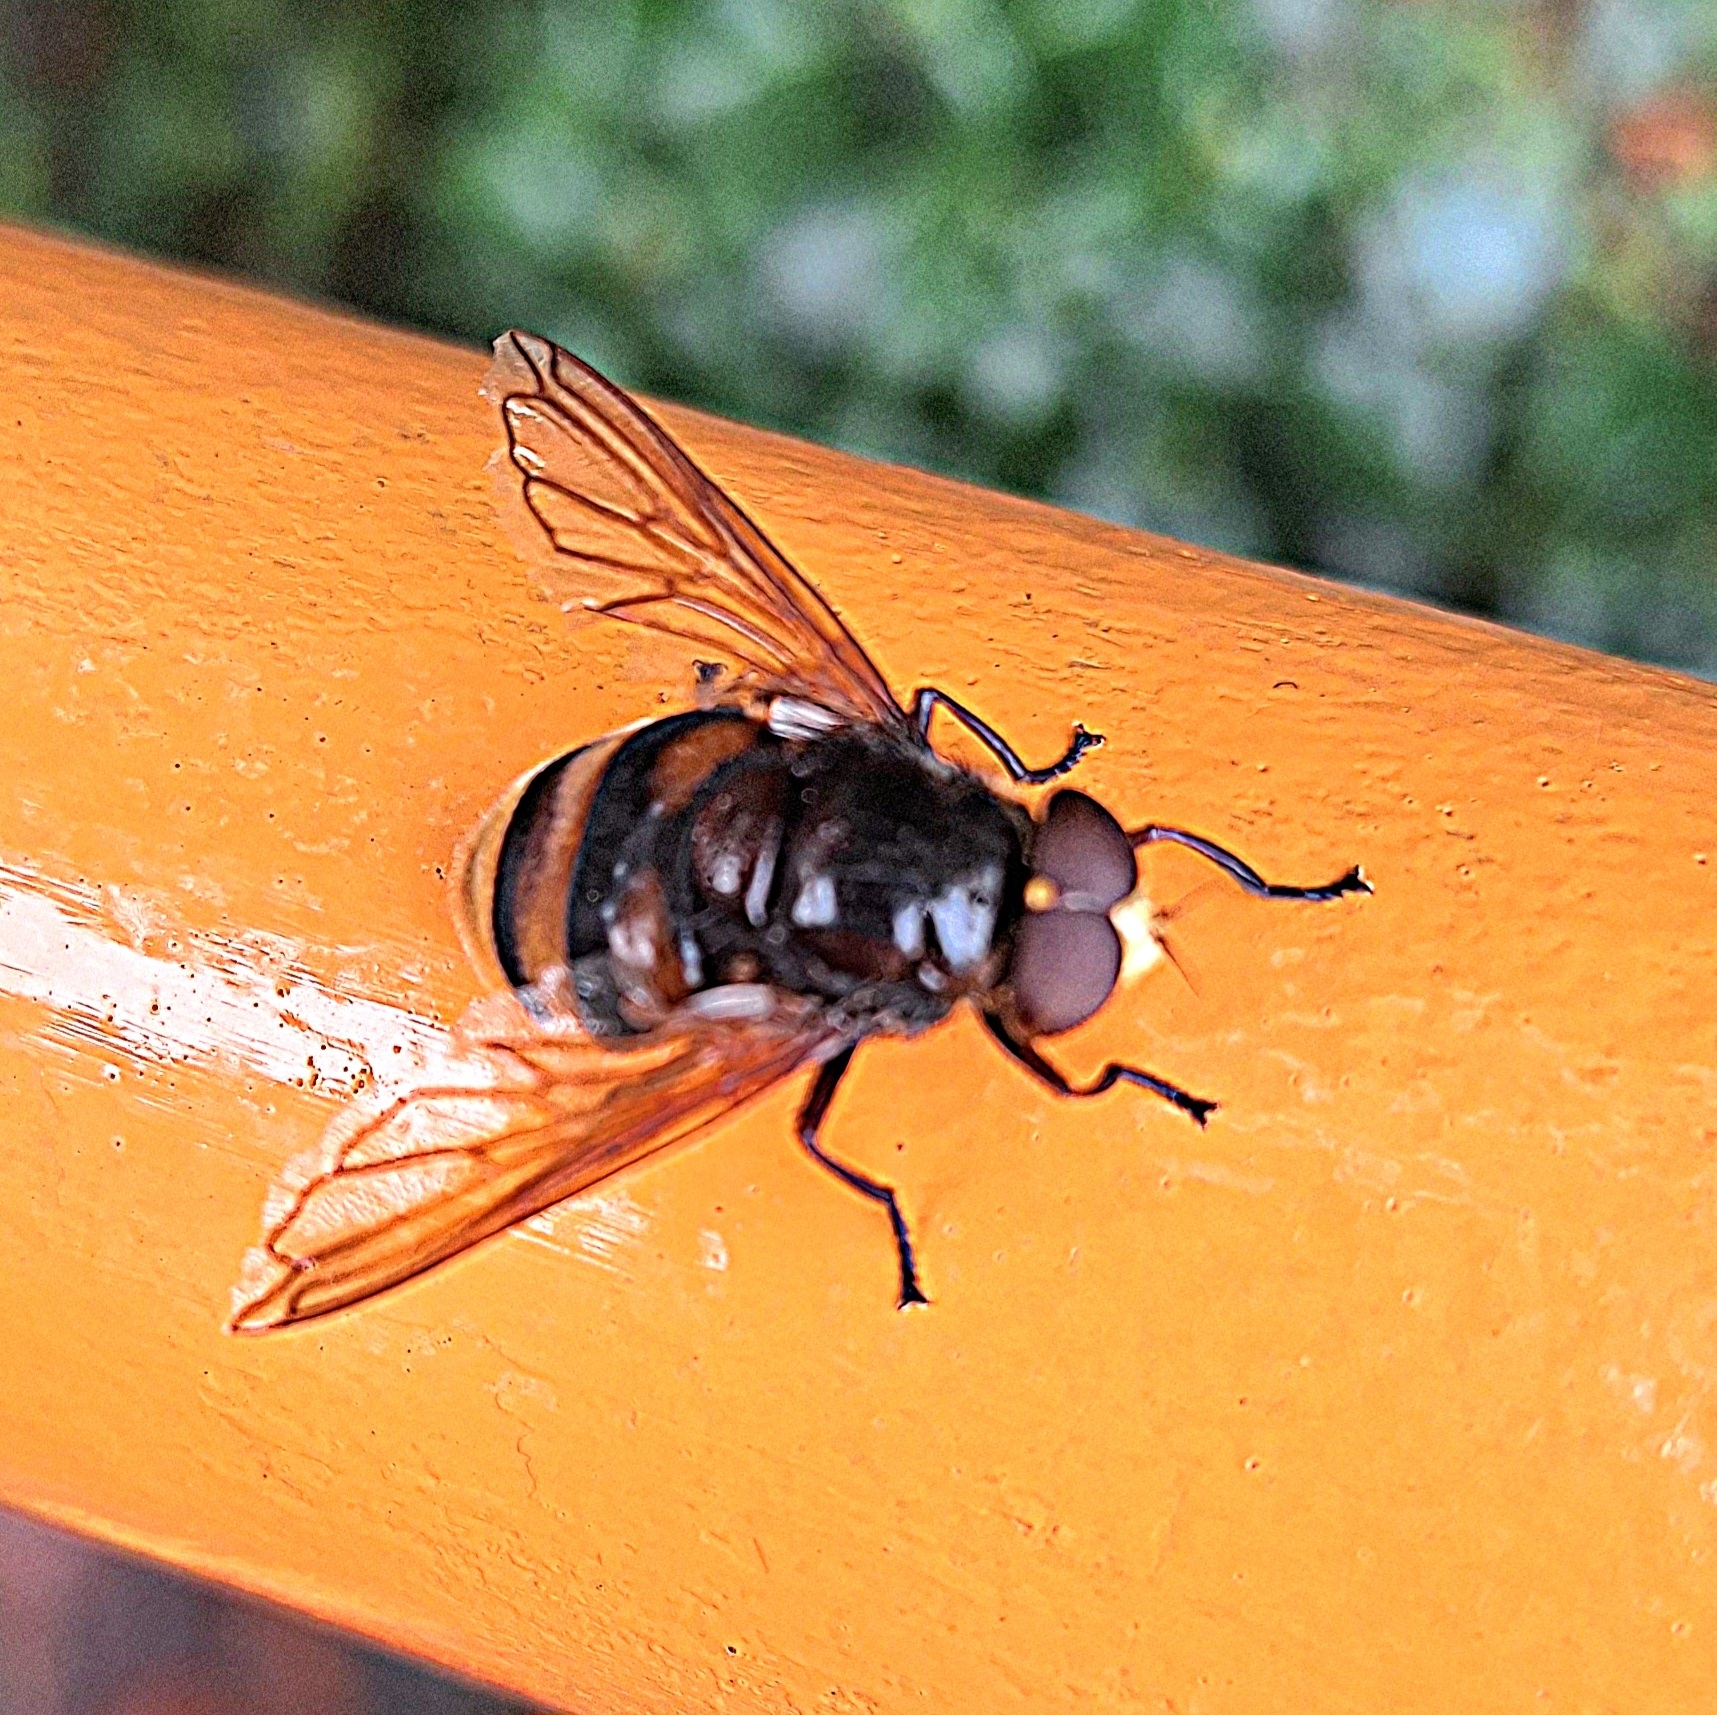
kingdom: Animalia
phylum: Arthropoda
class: Insecta
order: Diptera
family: Syrphidae
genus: Volucella
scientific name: Volucella zonaria
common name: Hornet hoverfly
